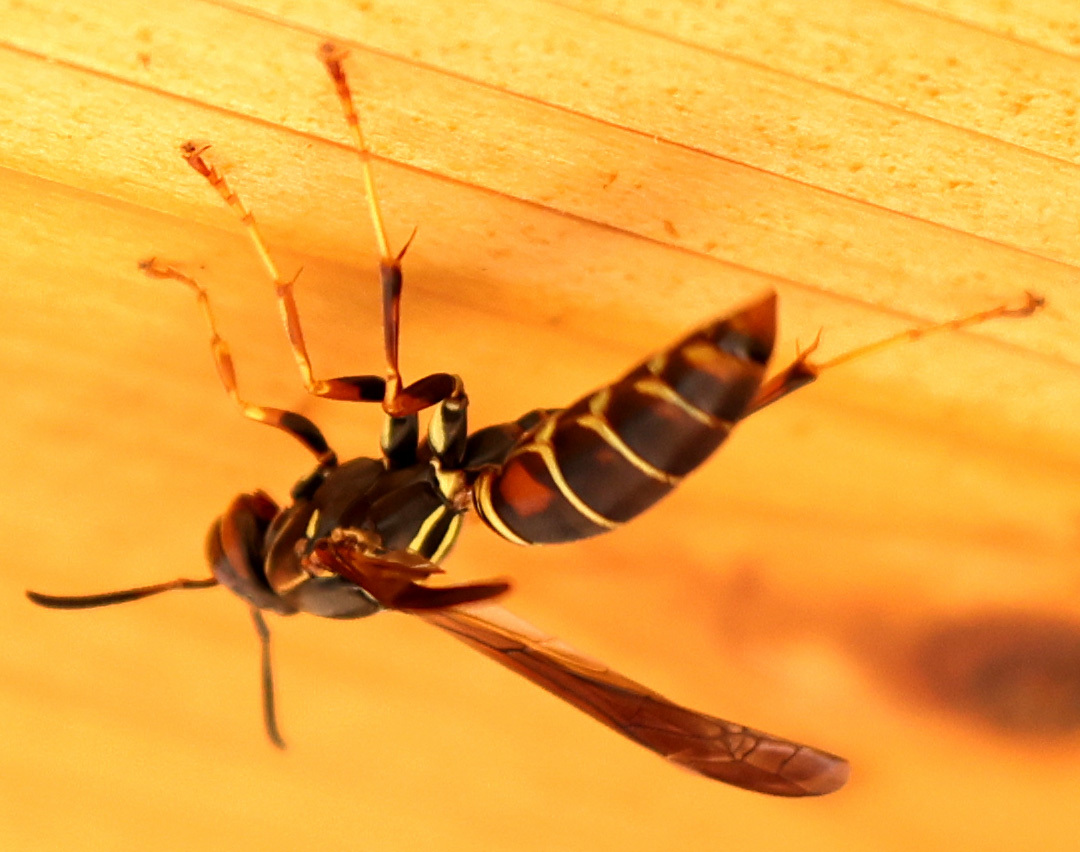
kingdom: Animalia
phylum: Arthropoda
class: Insecta
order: Hymenoptera
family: Eumenidae
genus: Polistes
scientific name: Polistes fuscatus
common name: Dark paper wasp
